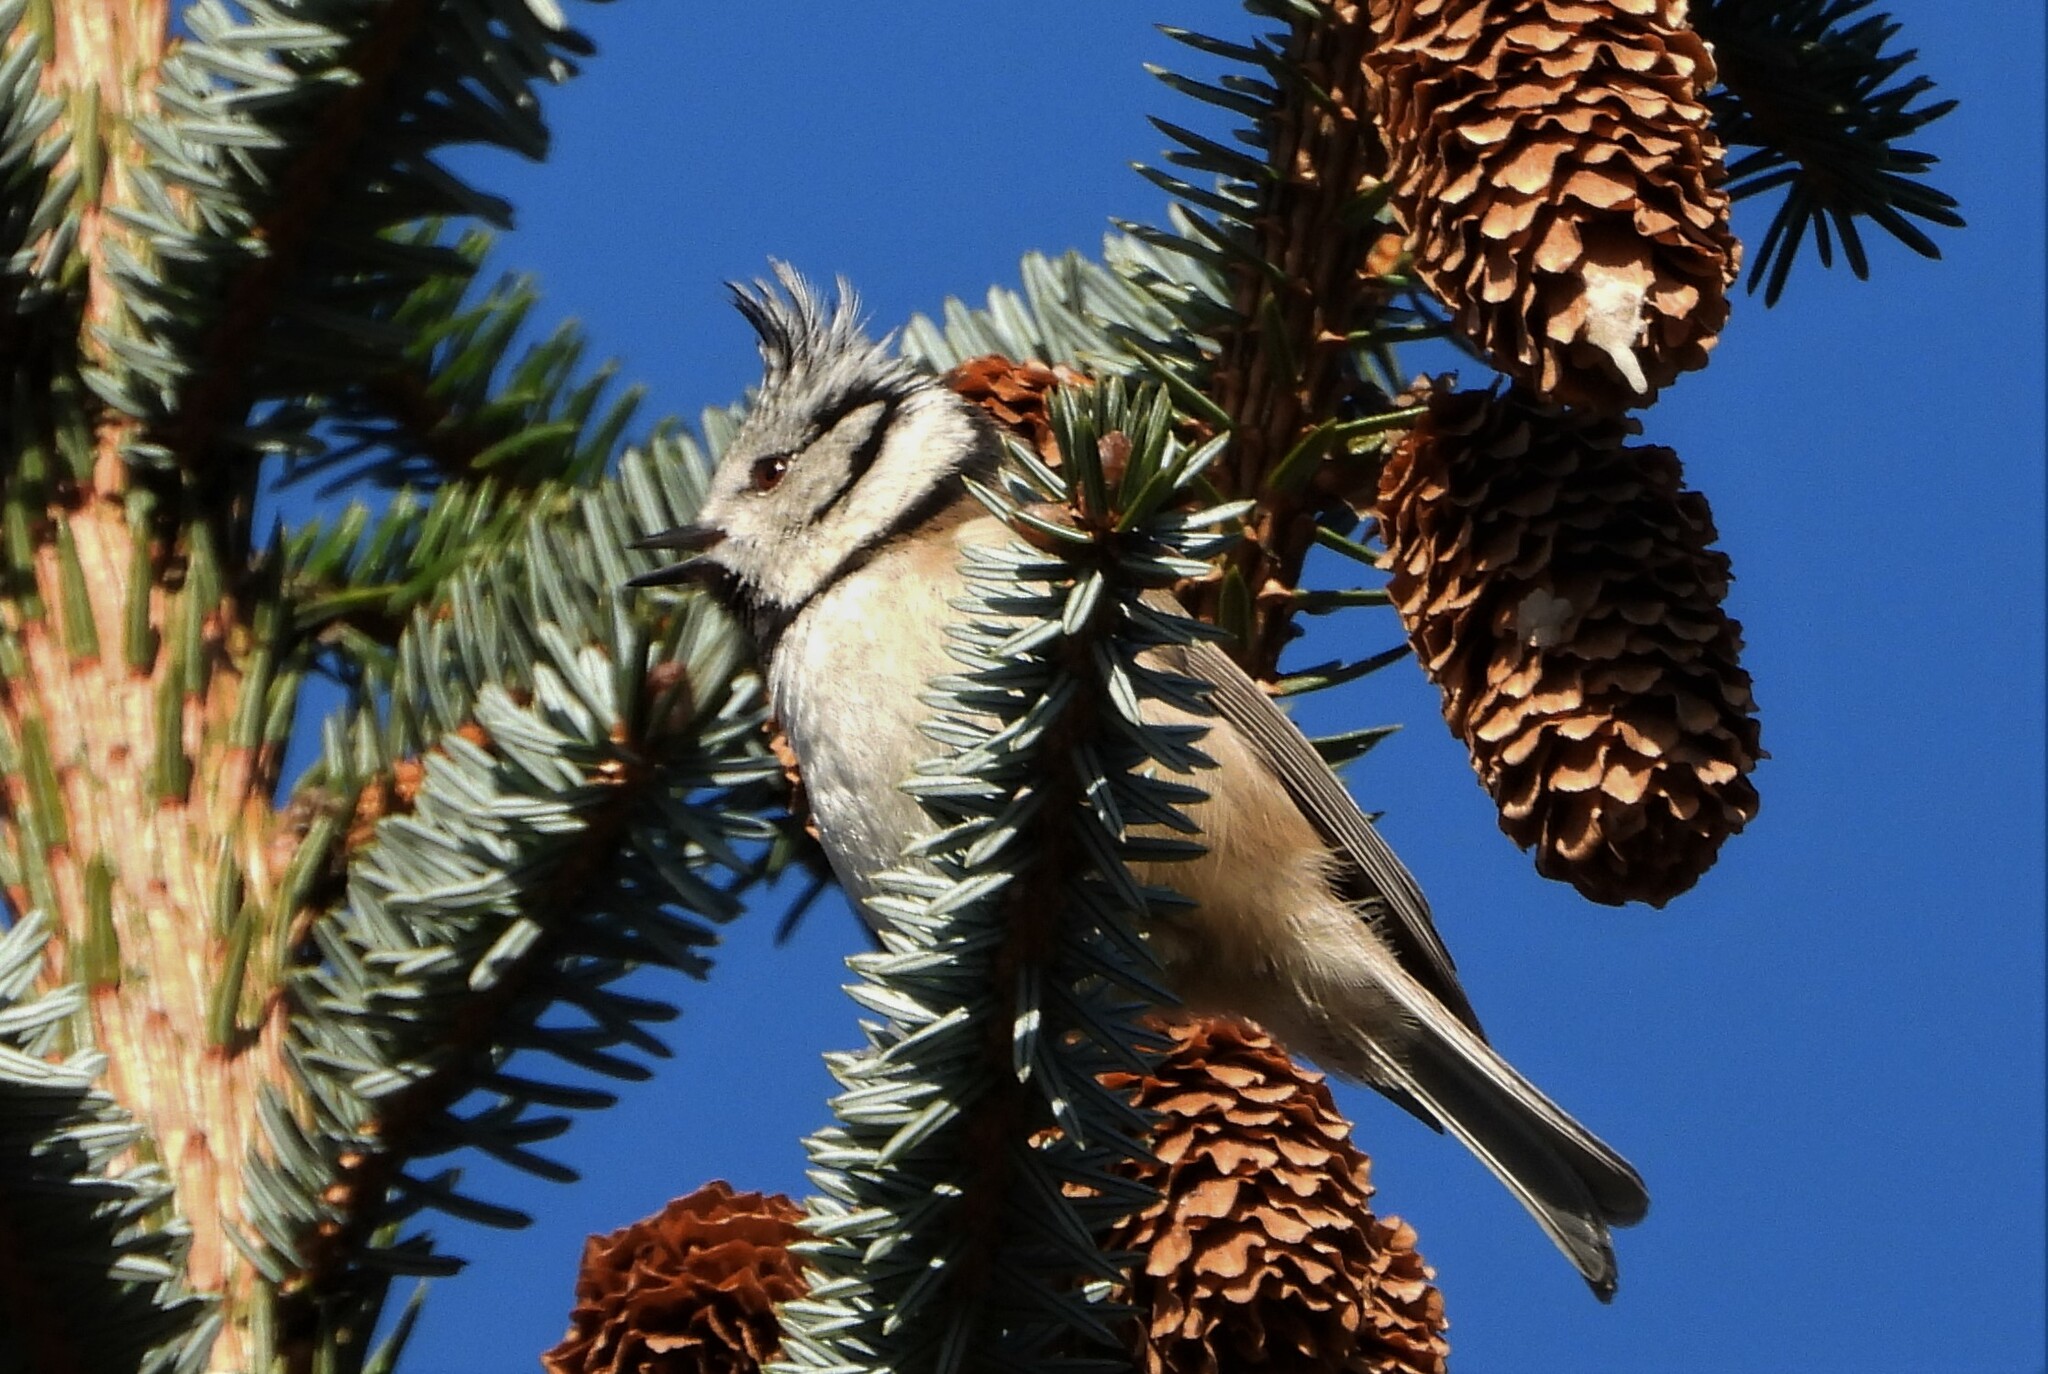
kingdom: Animalia
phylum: Chordata
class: Aves
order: Passeriformes
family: Paridae
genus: Lophophanes
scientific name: Lophophanes cristatus
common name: European crested tit
